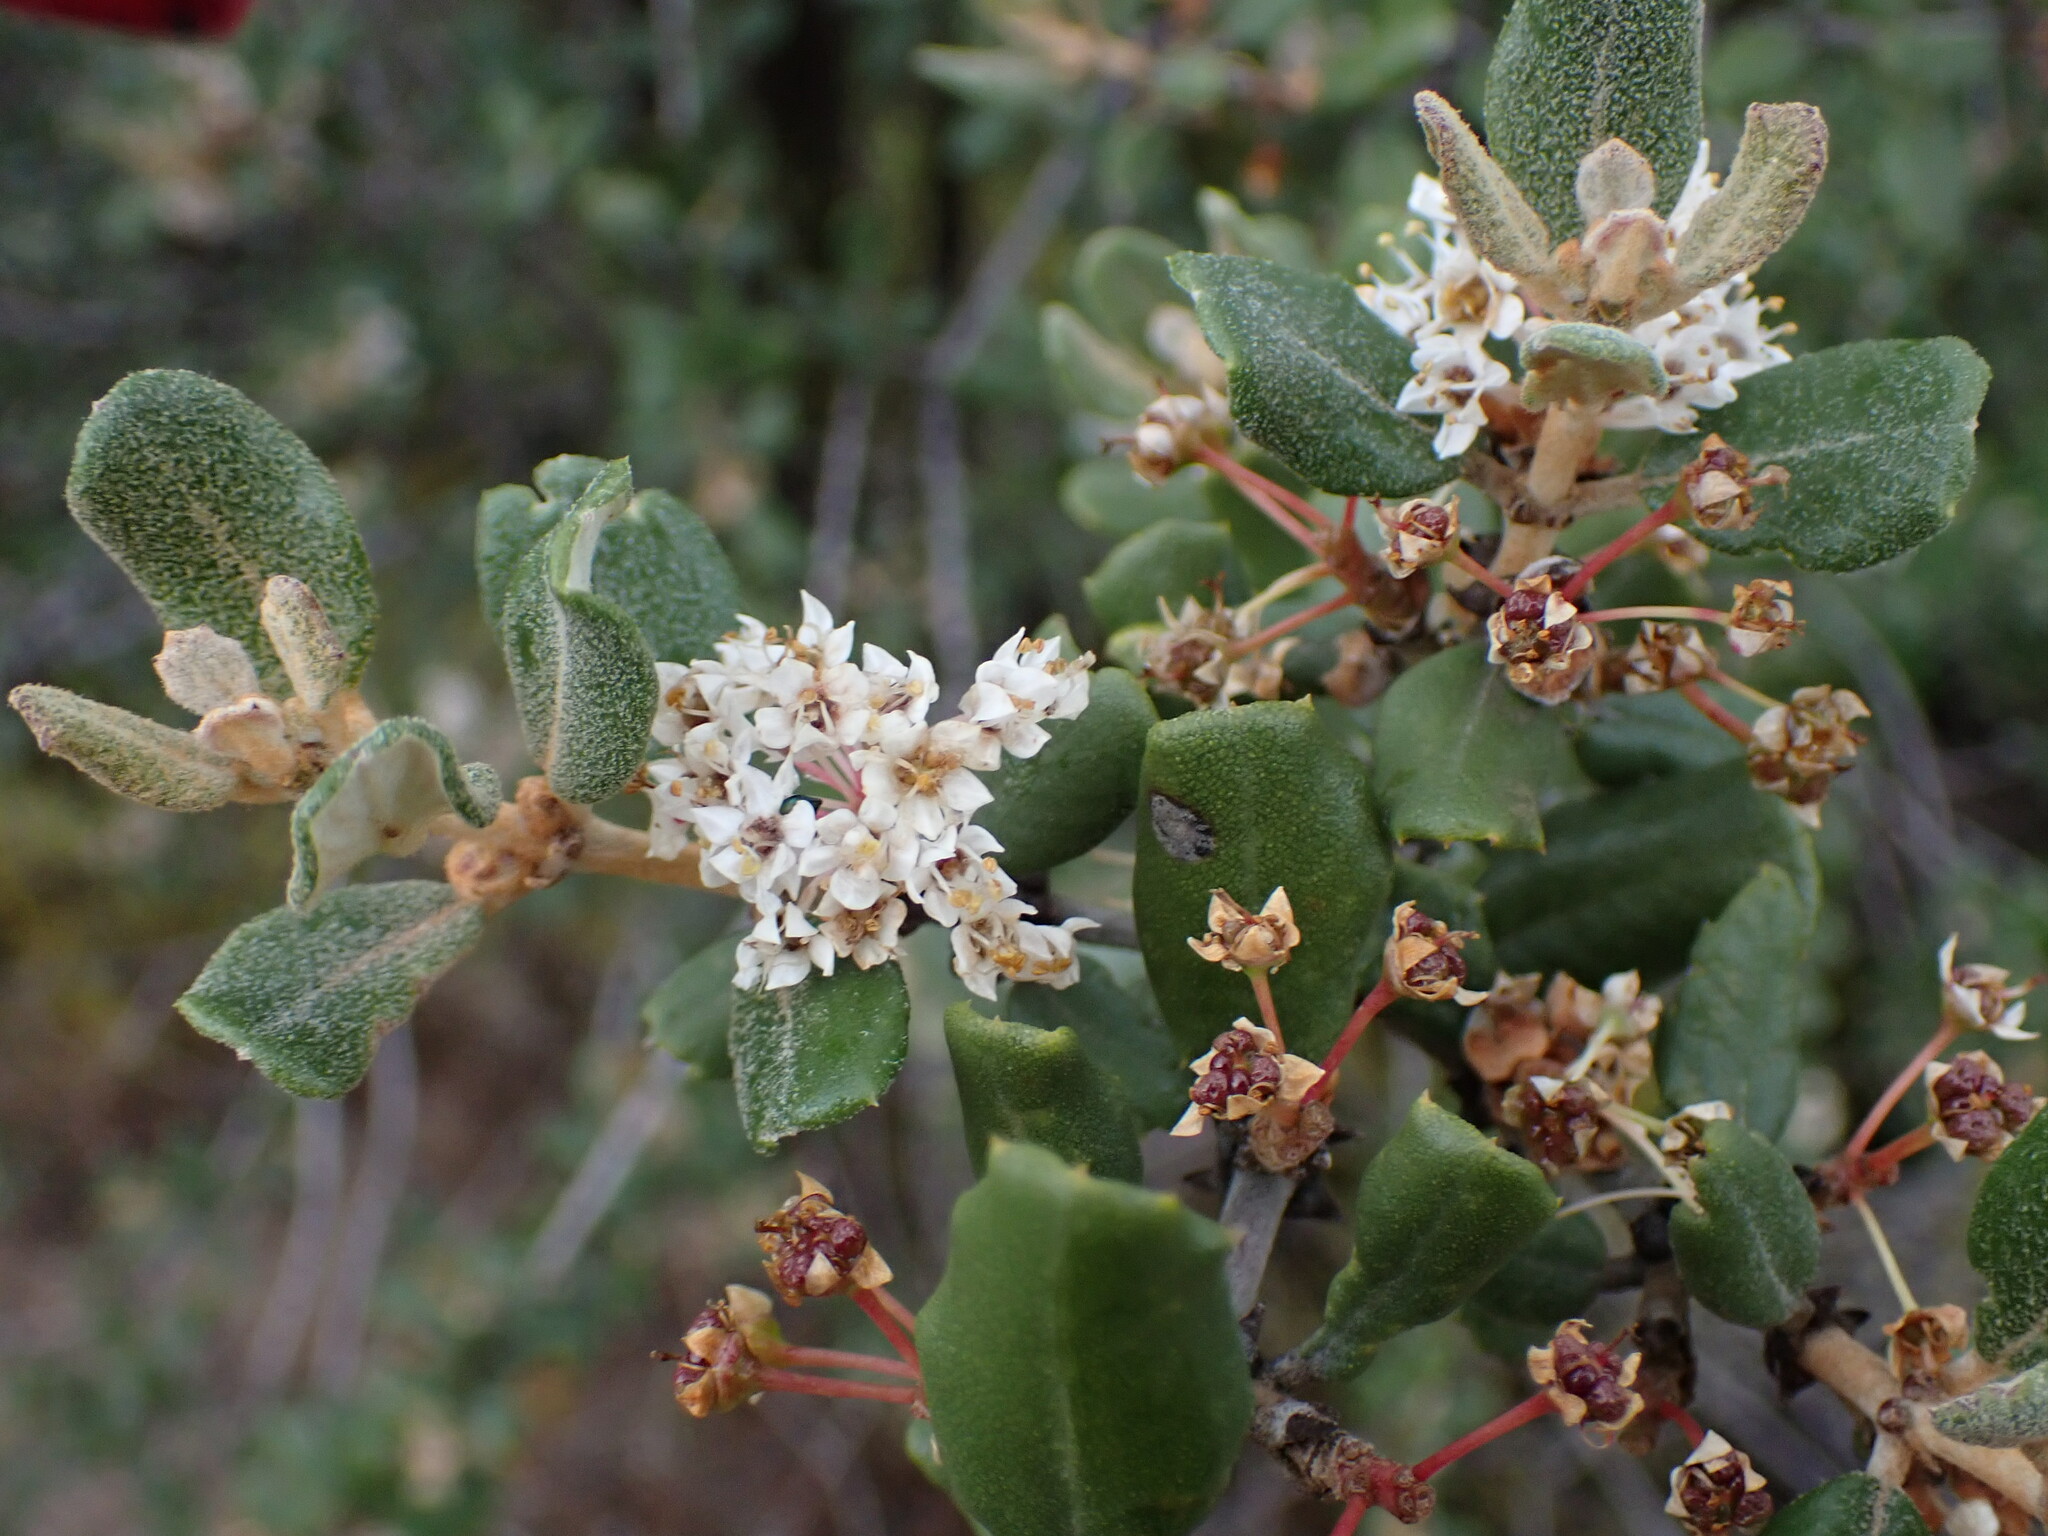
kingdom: Plantae
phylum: Tracheophyta
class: Magnoliopsida
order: Rosales
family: Rhamnaceae
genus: Ceanothus
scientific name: Ceanothus crassifolius
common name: Hoaryleaf ceanothus
